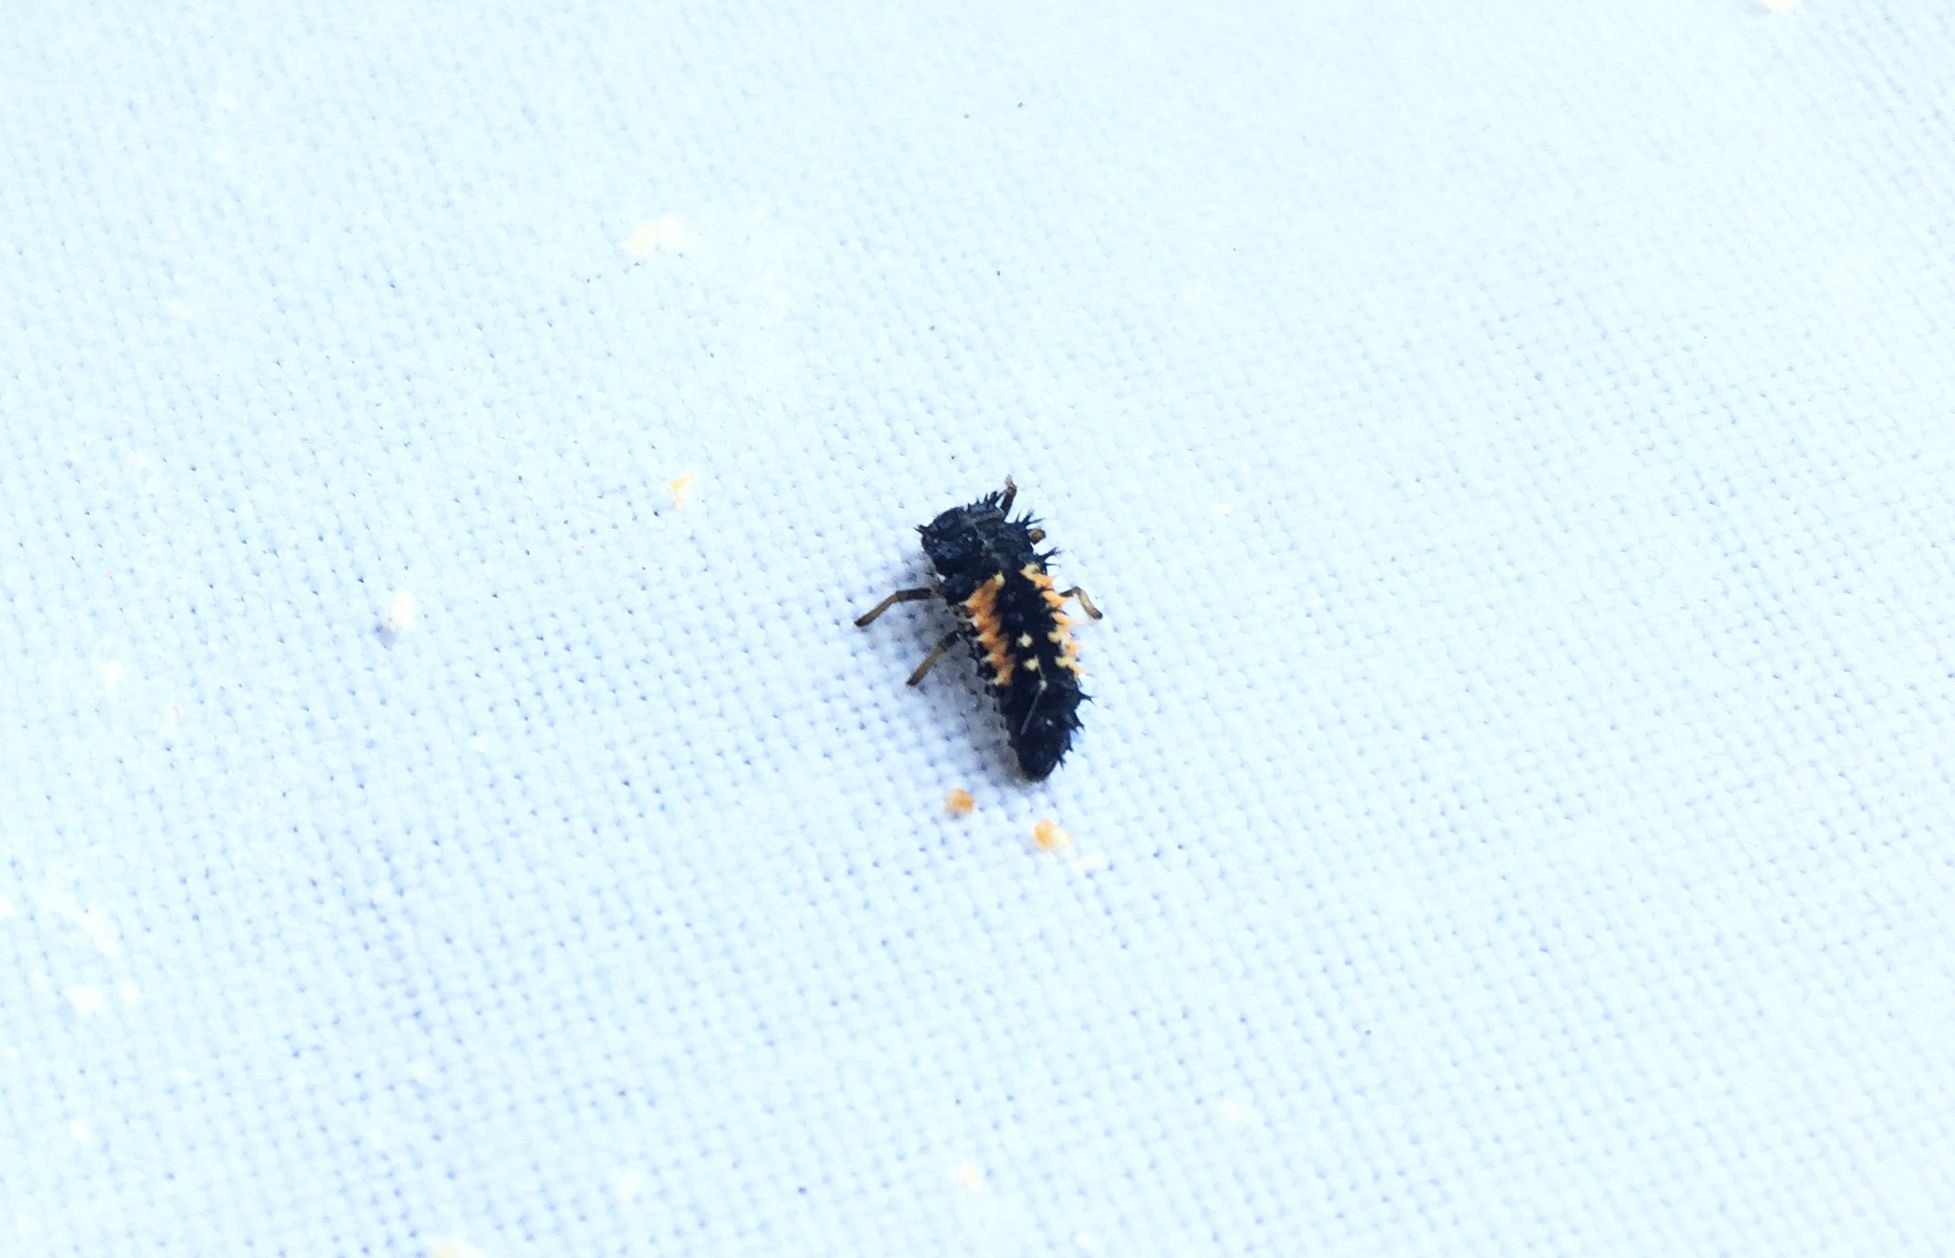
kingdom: Animalia
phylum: Arthropoda
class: Insecta
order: Coleoptera
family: Coccinellidae
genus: Harmonia
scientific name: Harmonia axyridis
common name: Harlequin ladybird
